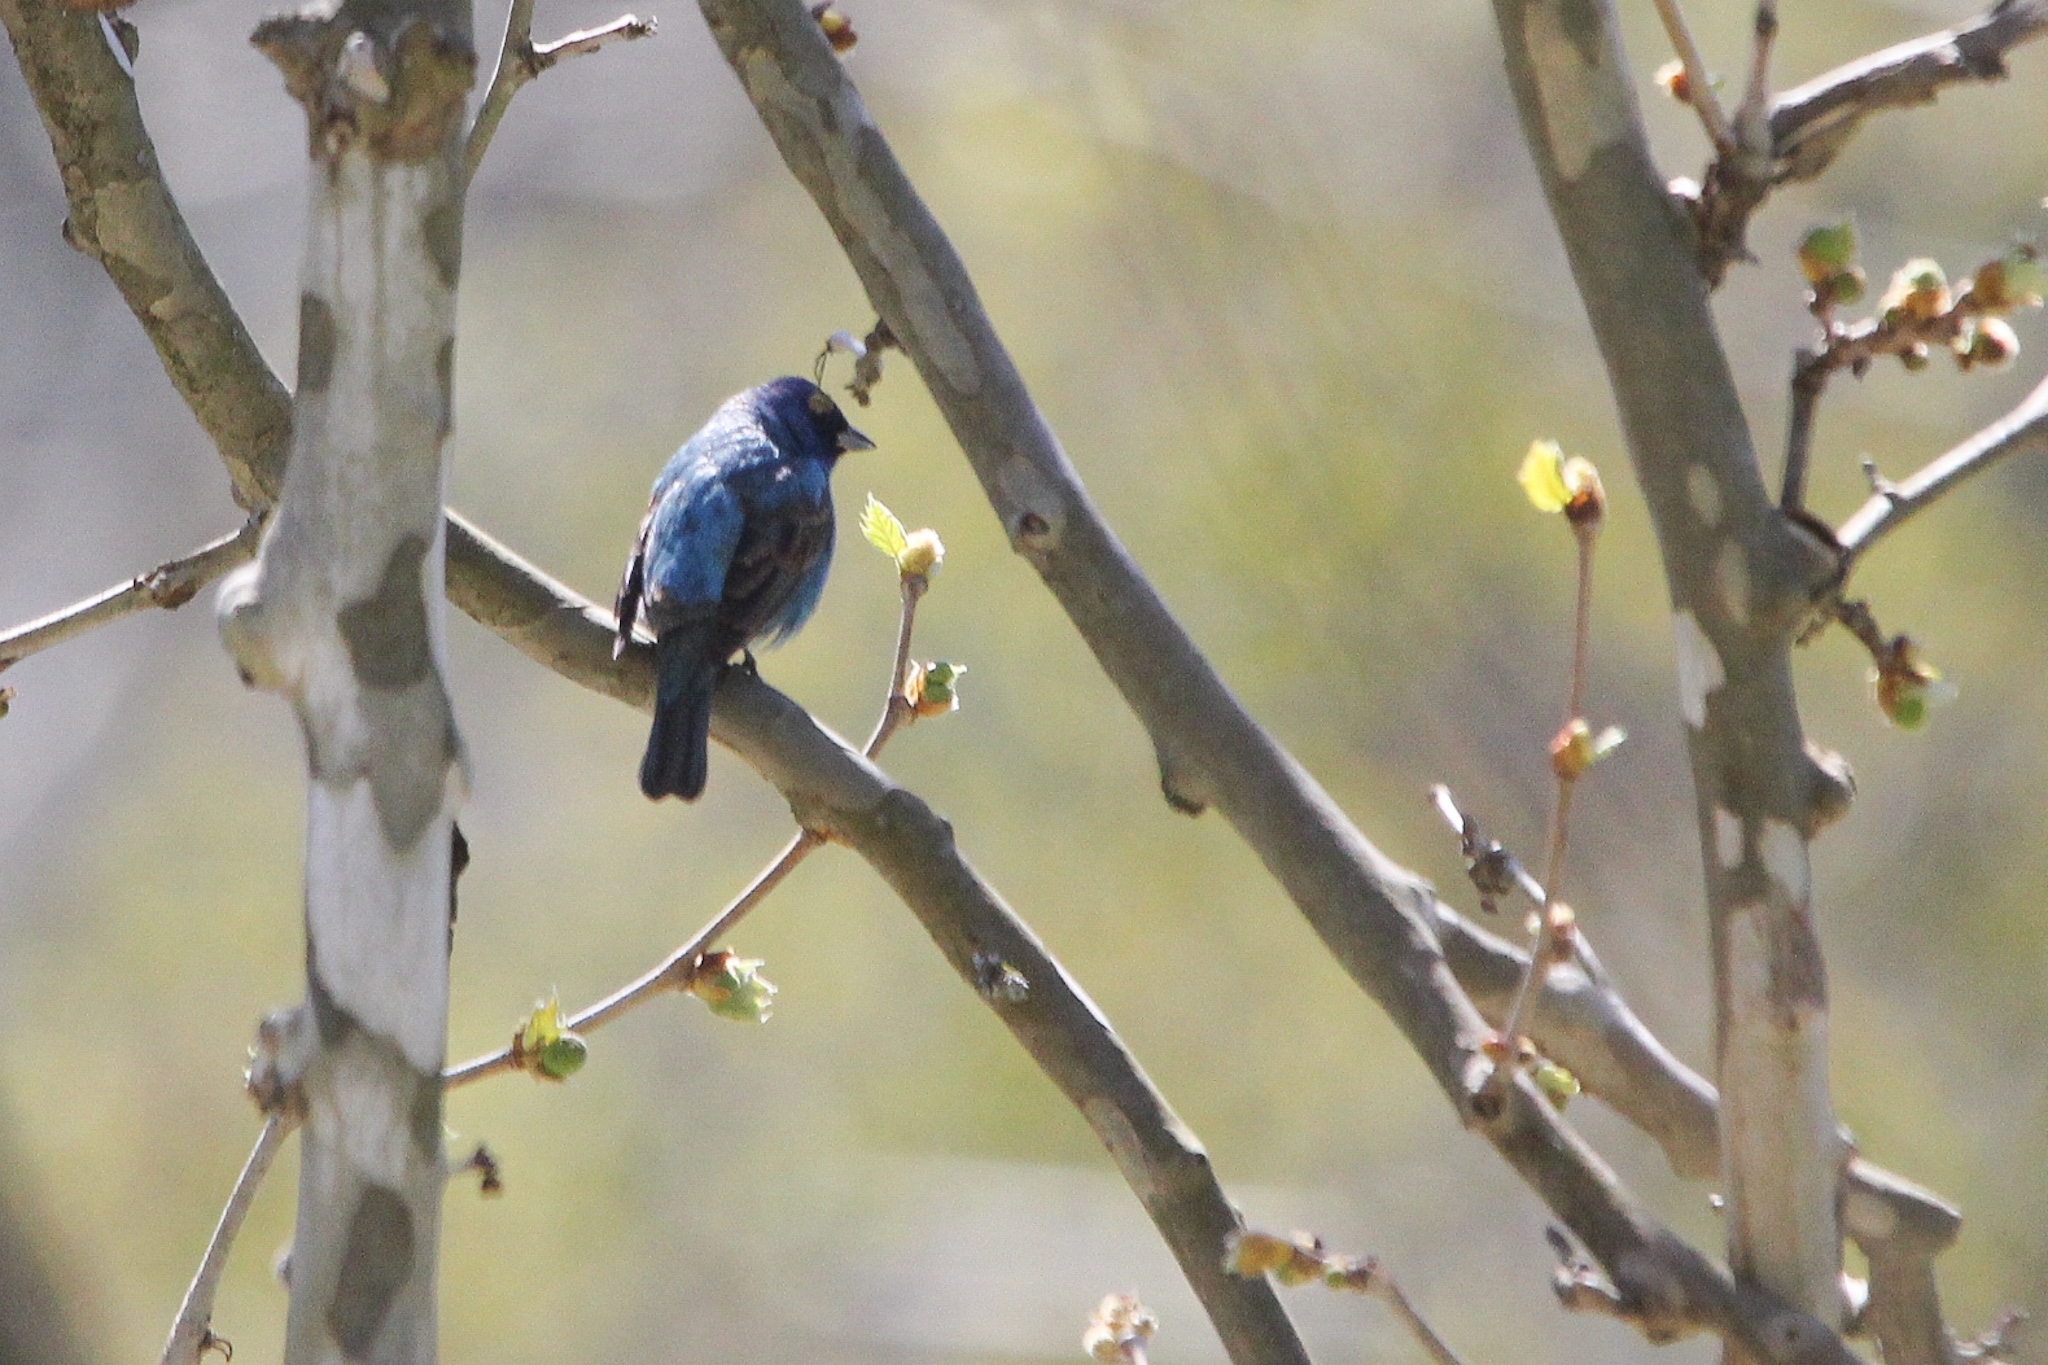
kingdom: Animalia
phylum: Chordata
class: Aves
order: Passeriformes
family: Cardinalidae
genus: Passerina
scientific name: Passerina cyanea
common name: Indigo bunting
